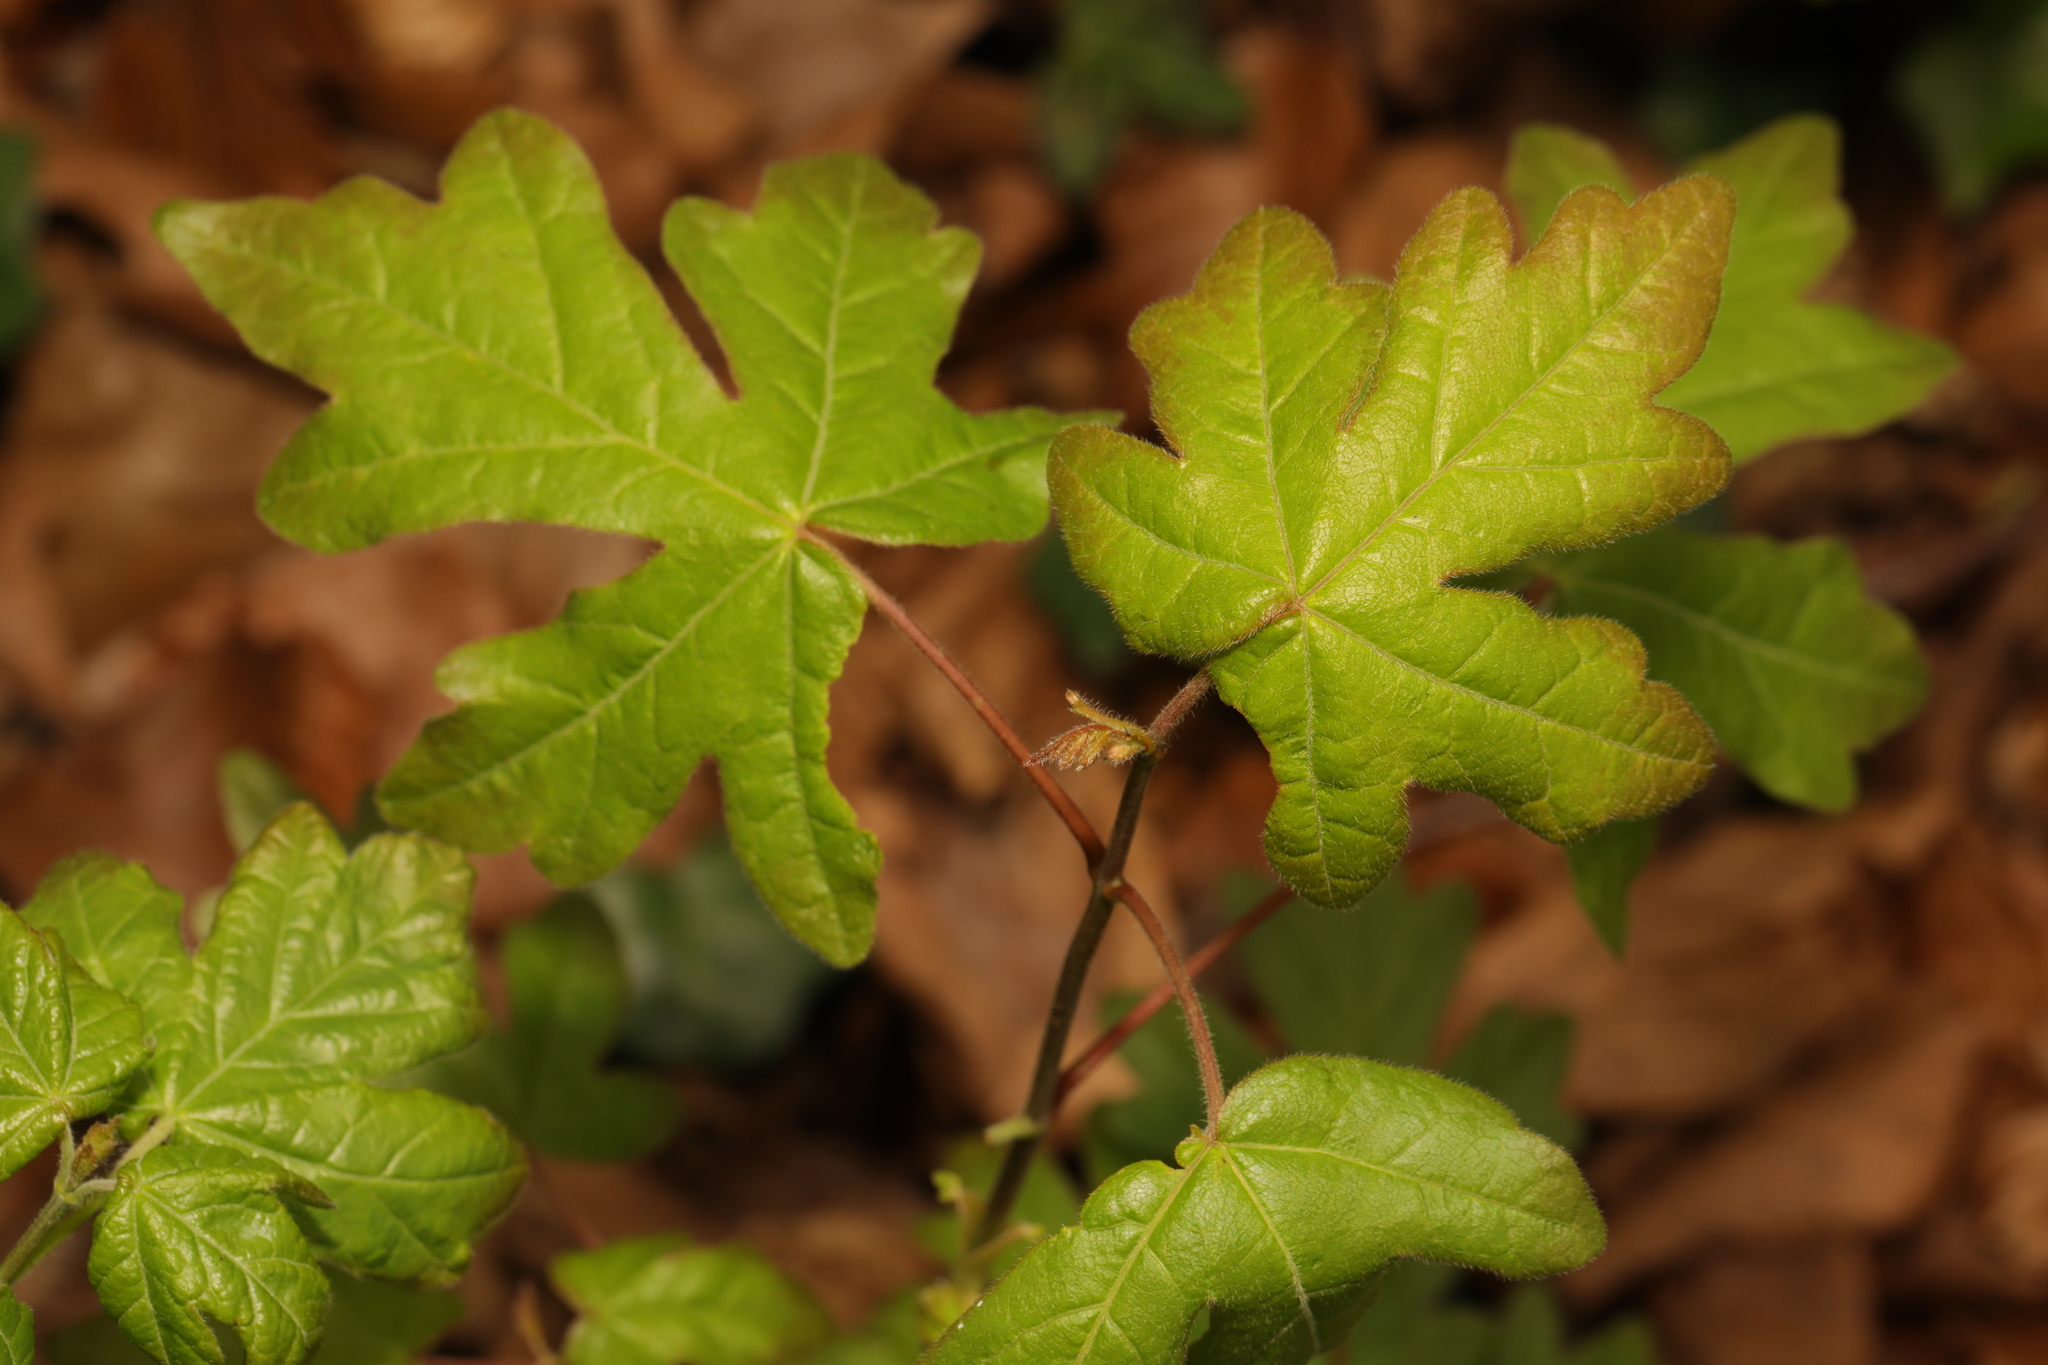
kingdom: Plantae
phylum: Tracheophyta
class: Magnoliopsida
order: Sapindales
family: Sapindaceae
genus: Acer
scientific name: Acer campestre
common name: Field maple
